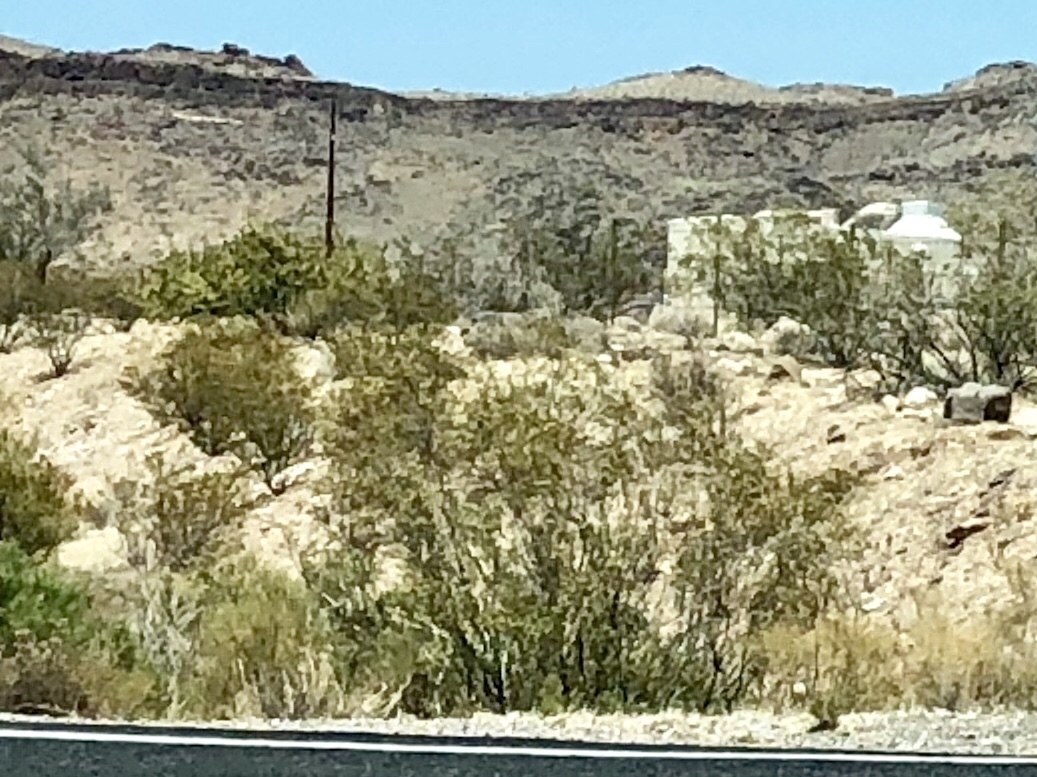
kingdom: Plantae
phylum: Tracheophyta
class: Magnoliopsida
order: Zygophyllales
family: Zygophyllaceae
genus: Larrea
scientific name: Larrea tridentata
